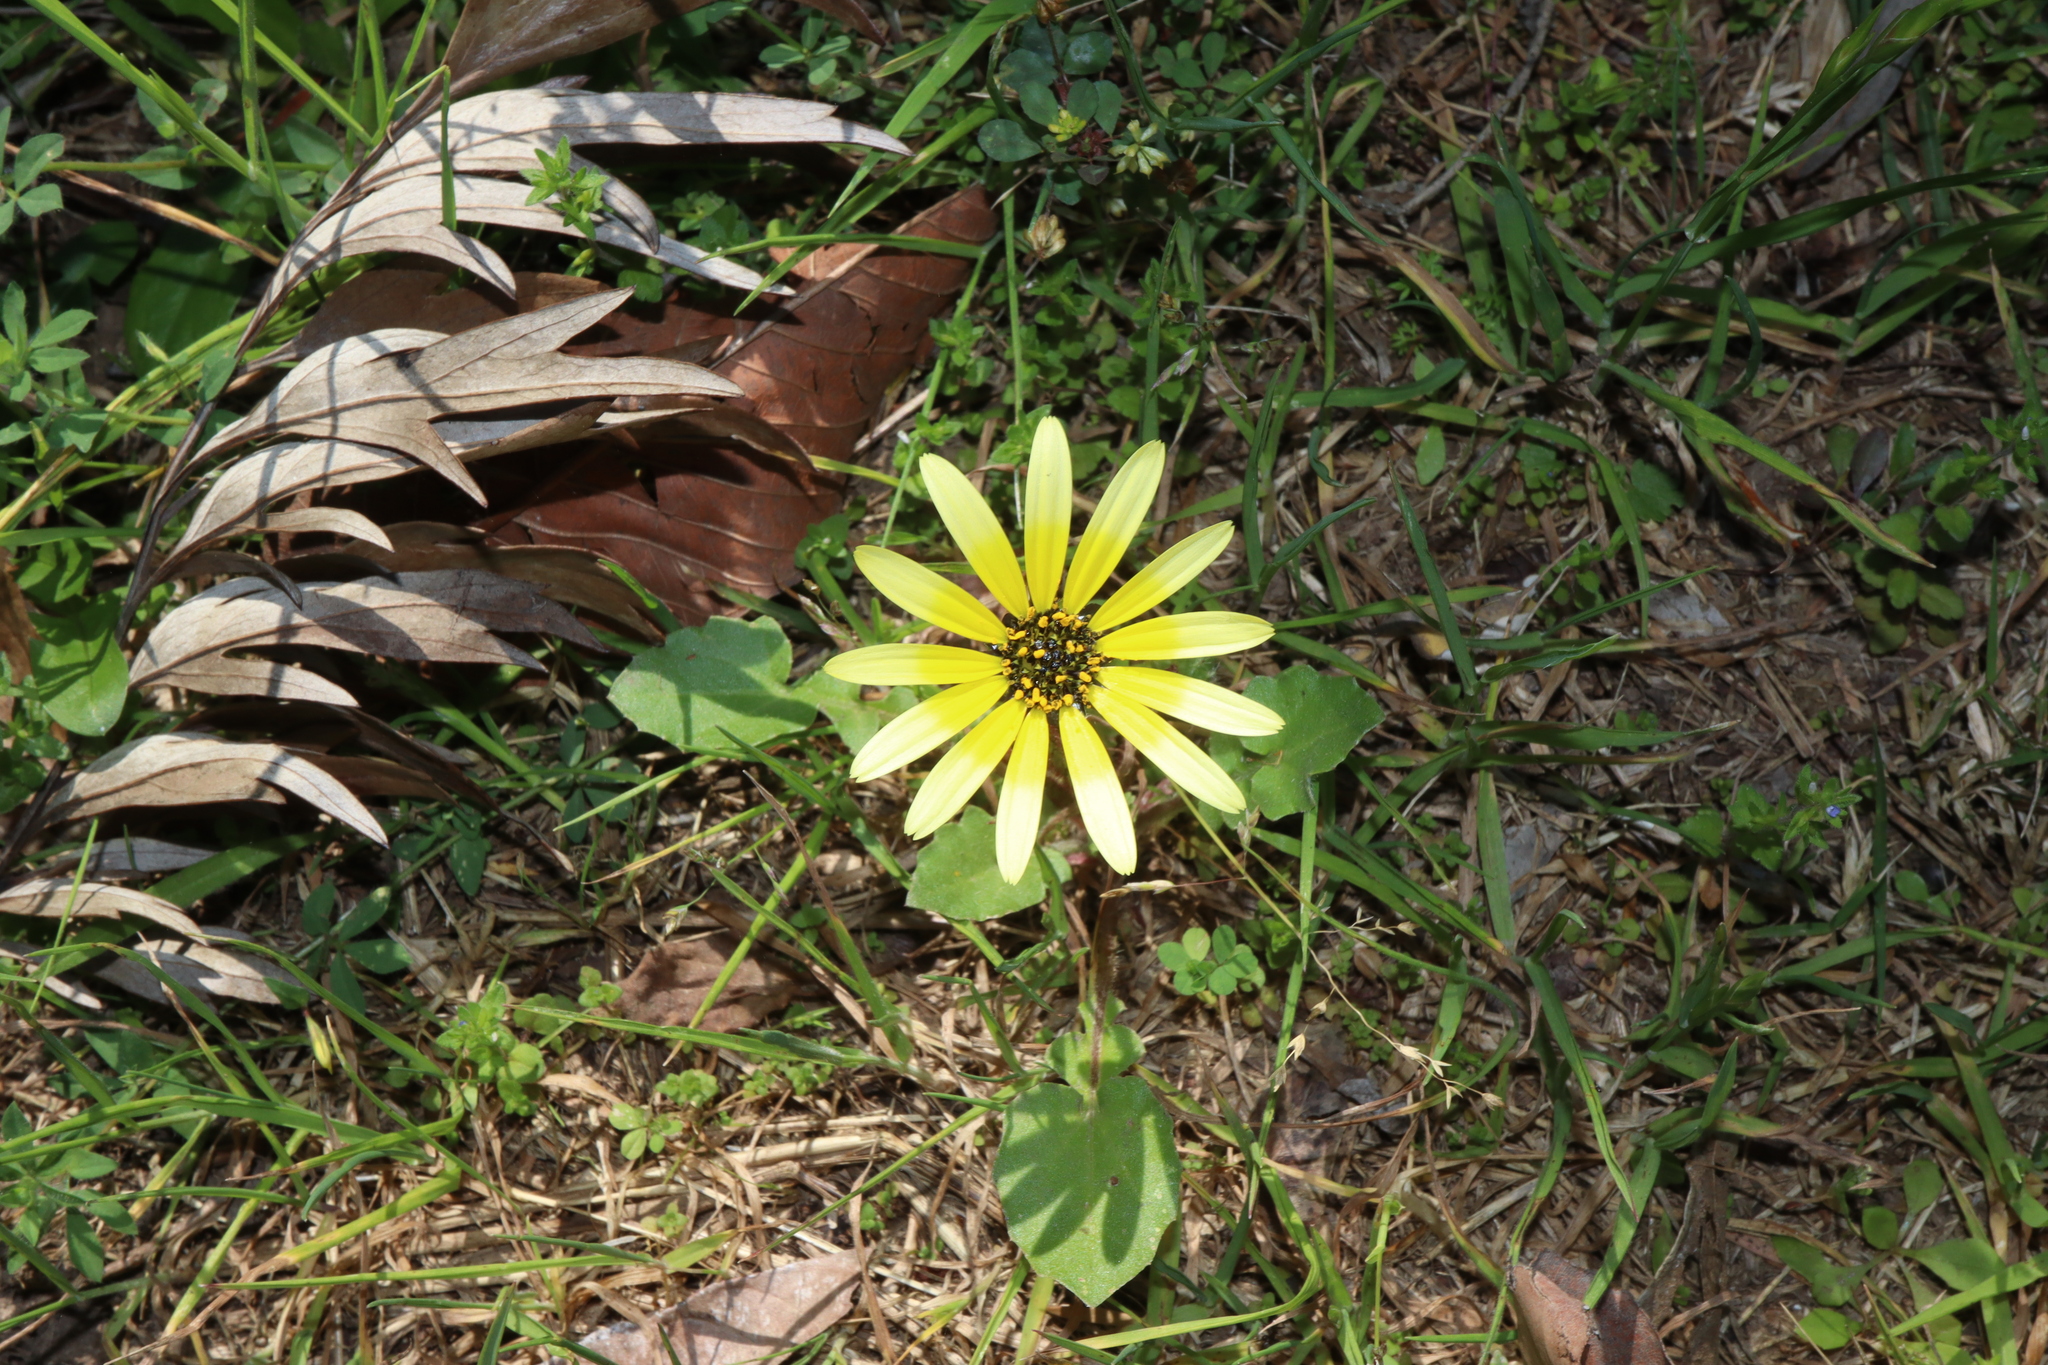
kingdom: Plantae
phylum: Tracheophyta
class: Magnoliopsida
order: Asterales
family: Asteraceae
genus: Arctotheca
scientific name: Arctotheca calendula
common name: Capeweed
